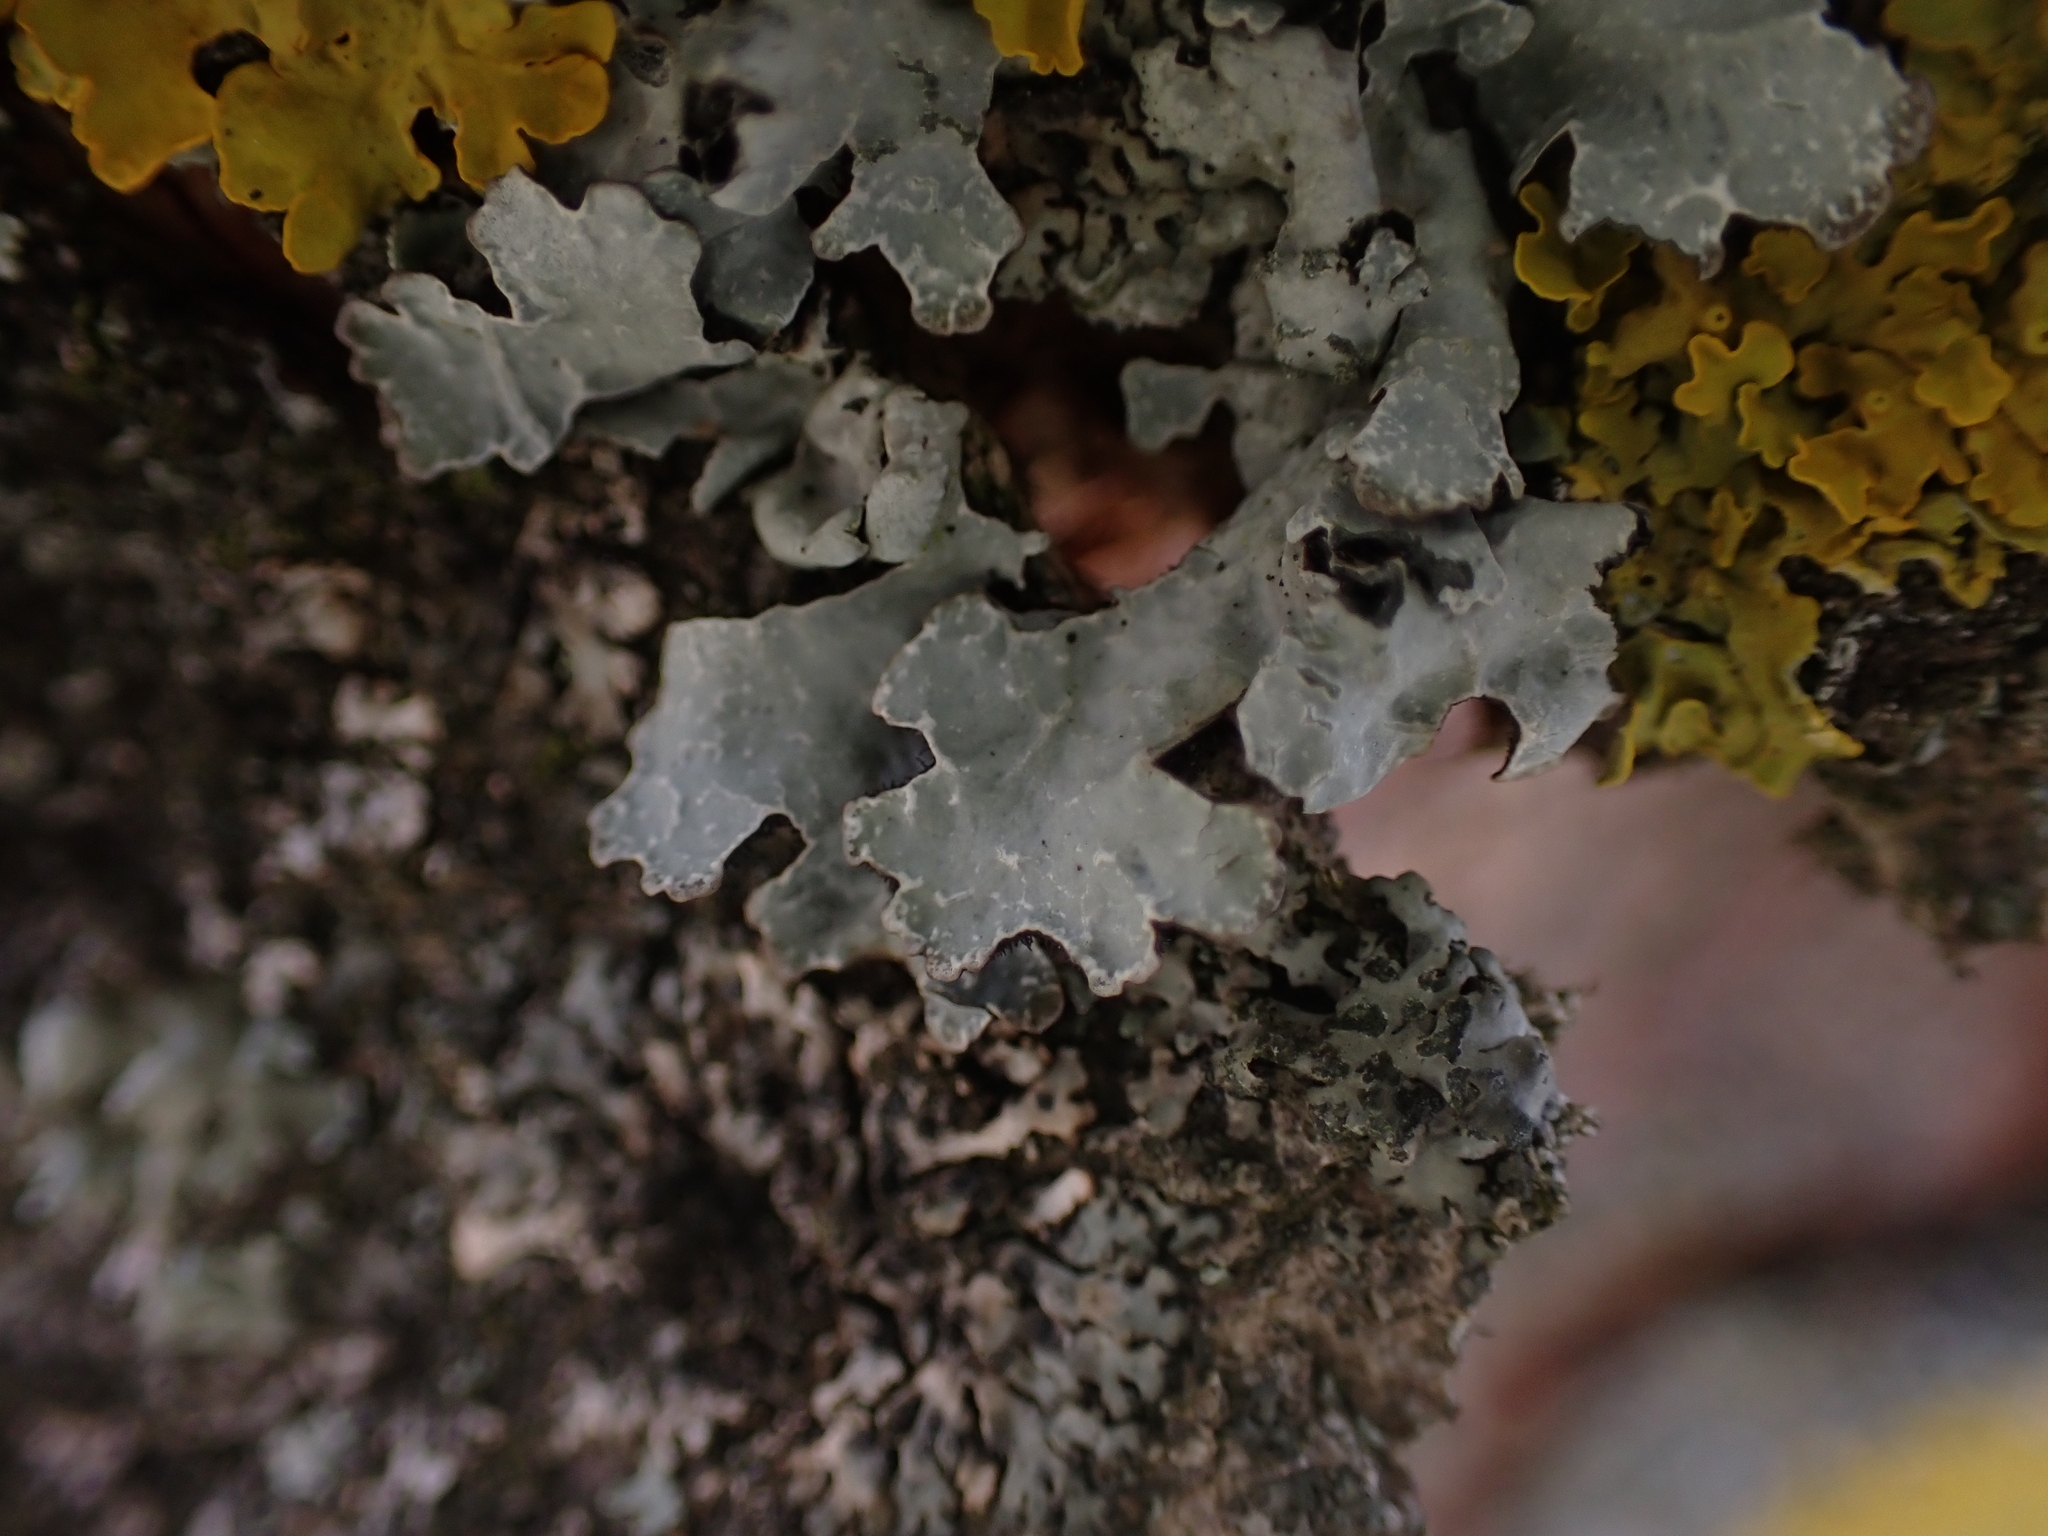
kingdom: Fungi
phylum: Ascomycota
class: Lecanoromycetes
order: Lecanorales
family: Parmeliaceae
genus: Parmelia
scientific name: Parmelia sulcata
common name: Netted shield lichen
